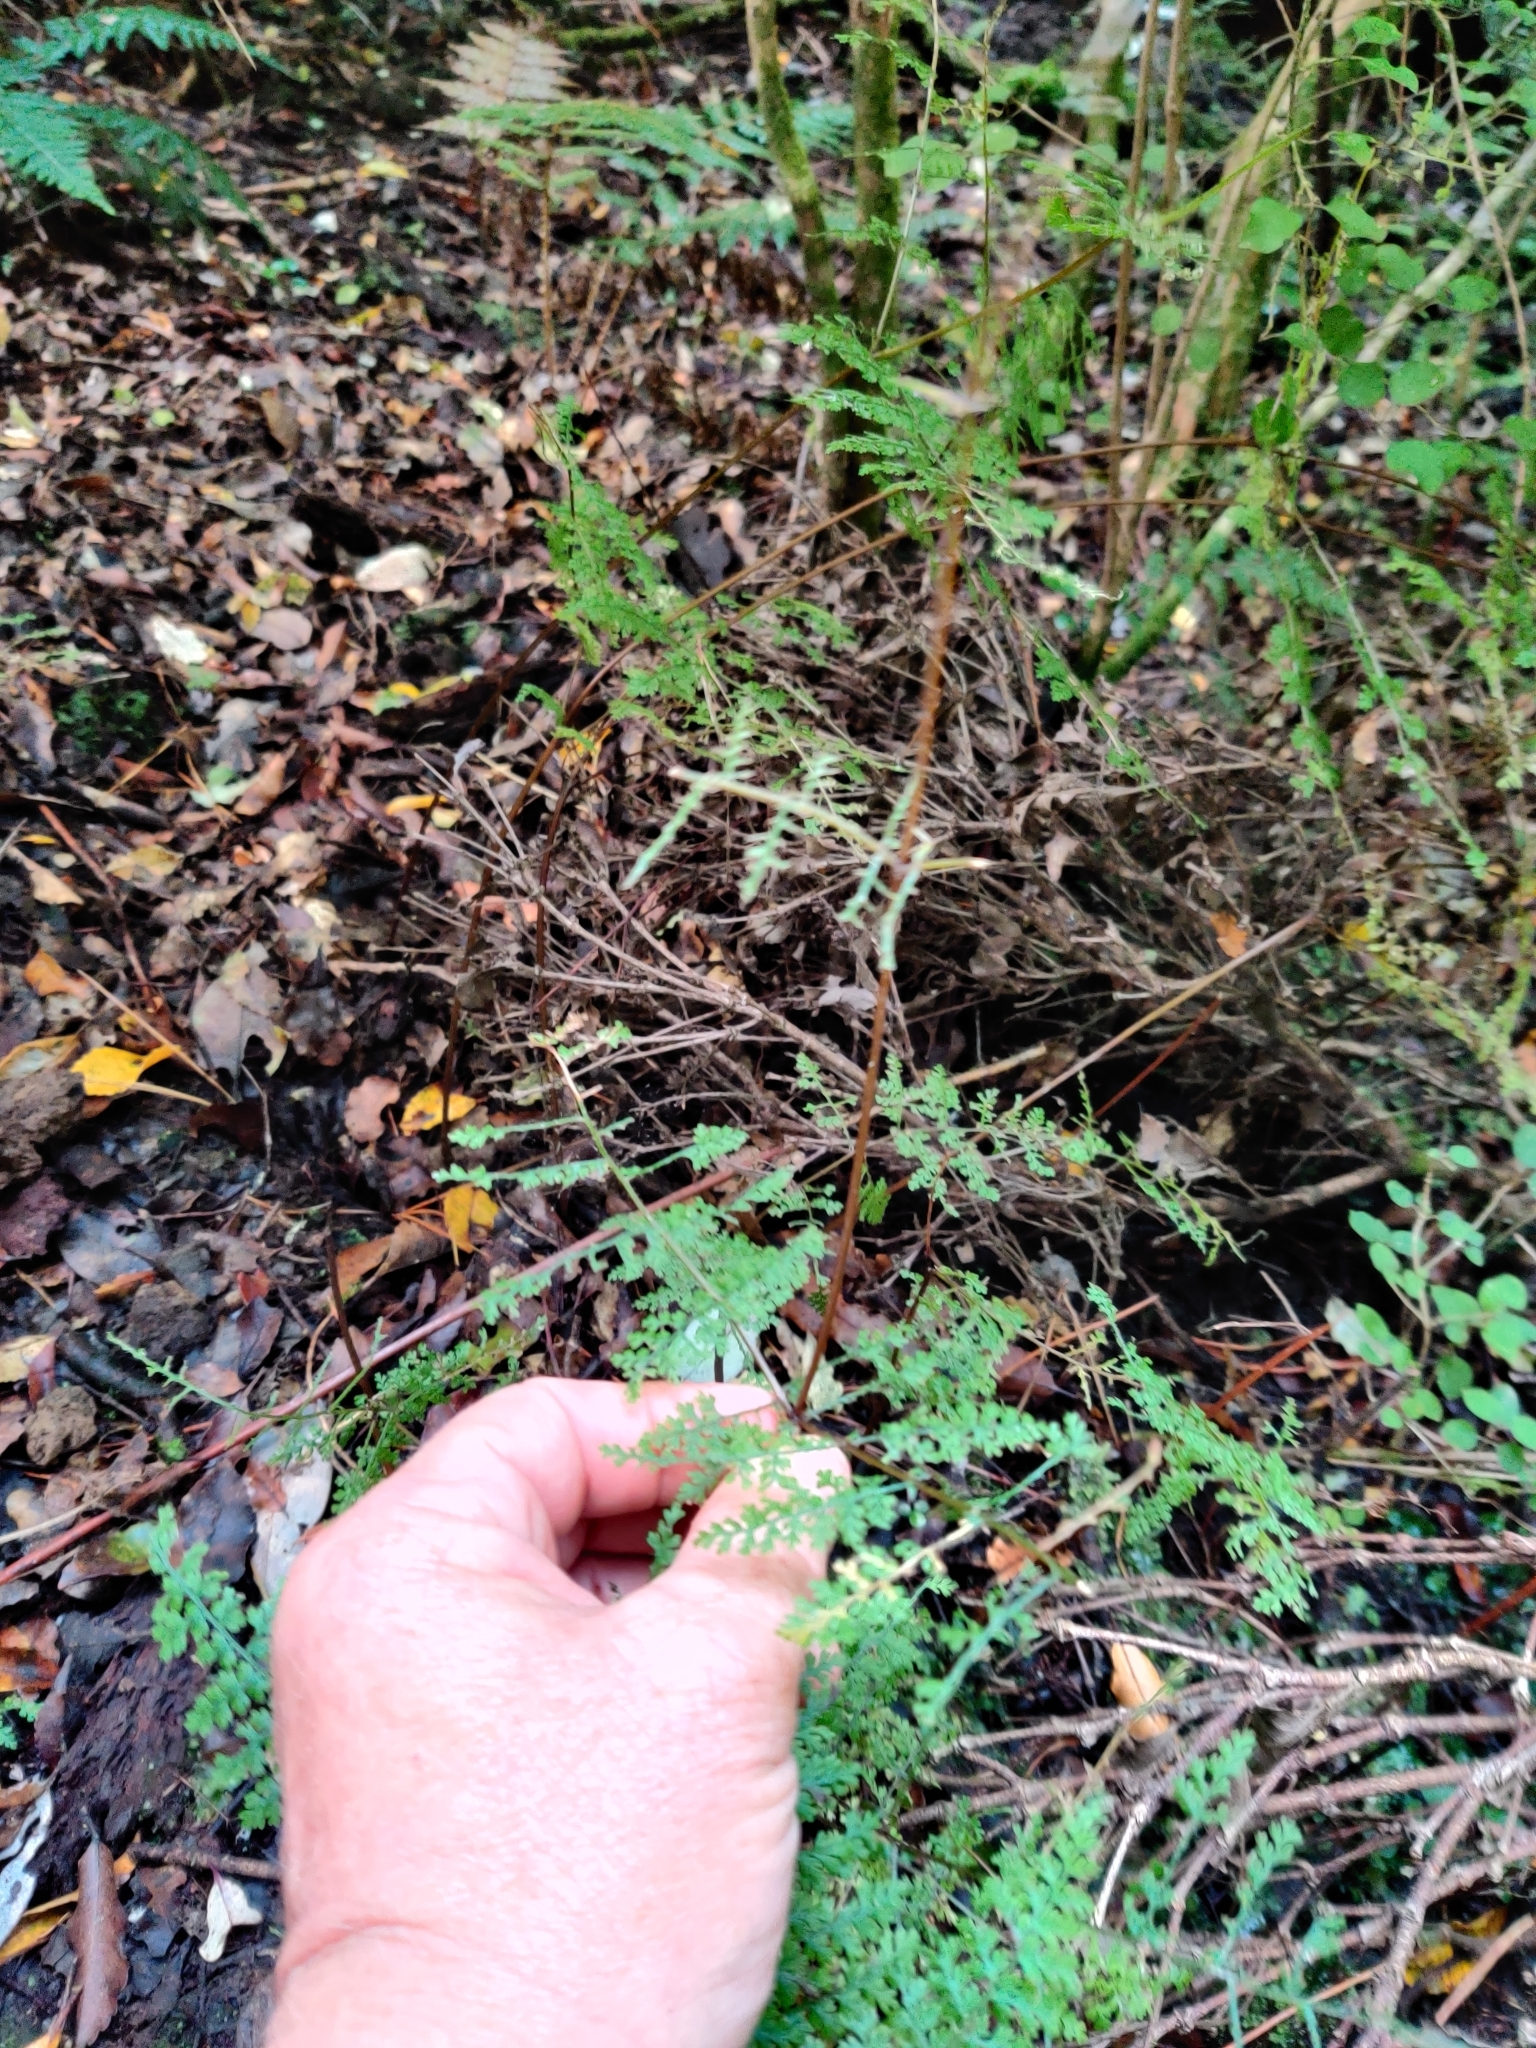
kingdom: Plantae
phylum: Tracheophyta
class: Polypodiopsida
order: Polypodiales
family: Dennstaedtiaceae
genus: Hypolepis
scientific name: Hypolepis millefolium
